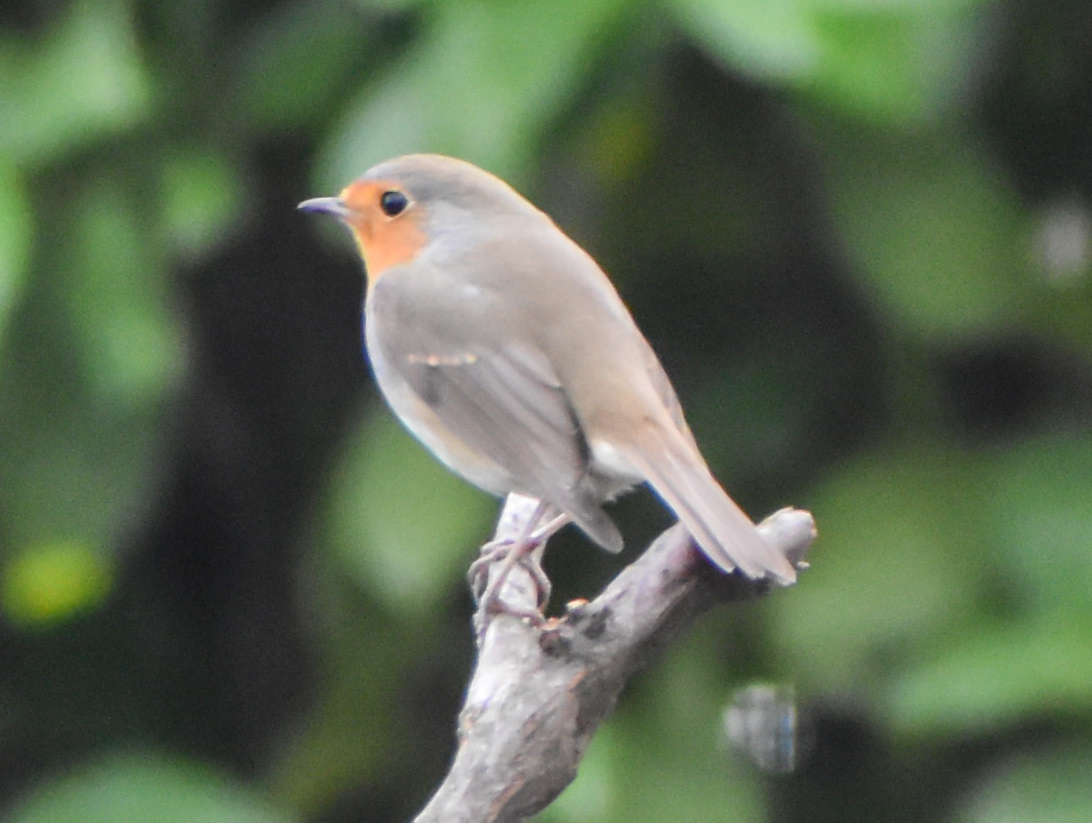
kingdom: Animalia
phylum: Chordata
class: Aves
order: Passeriformes
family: Muscicapidae
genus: Erithacus
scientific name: Erithacus rubecula
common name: European robin
